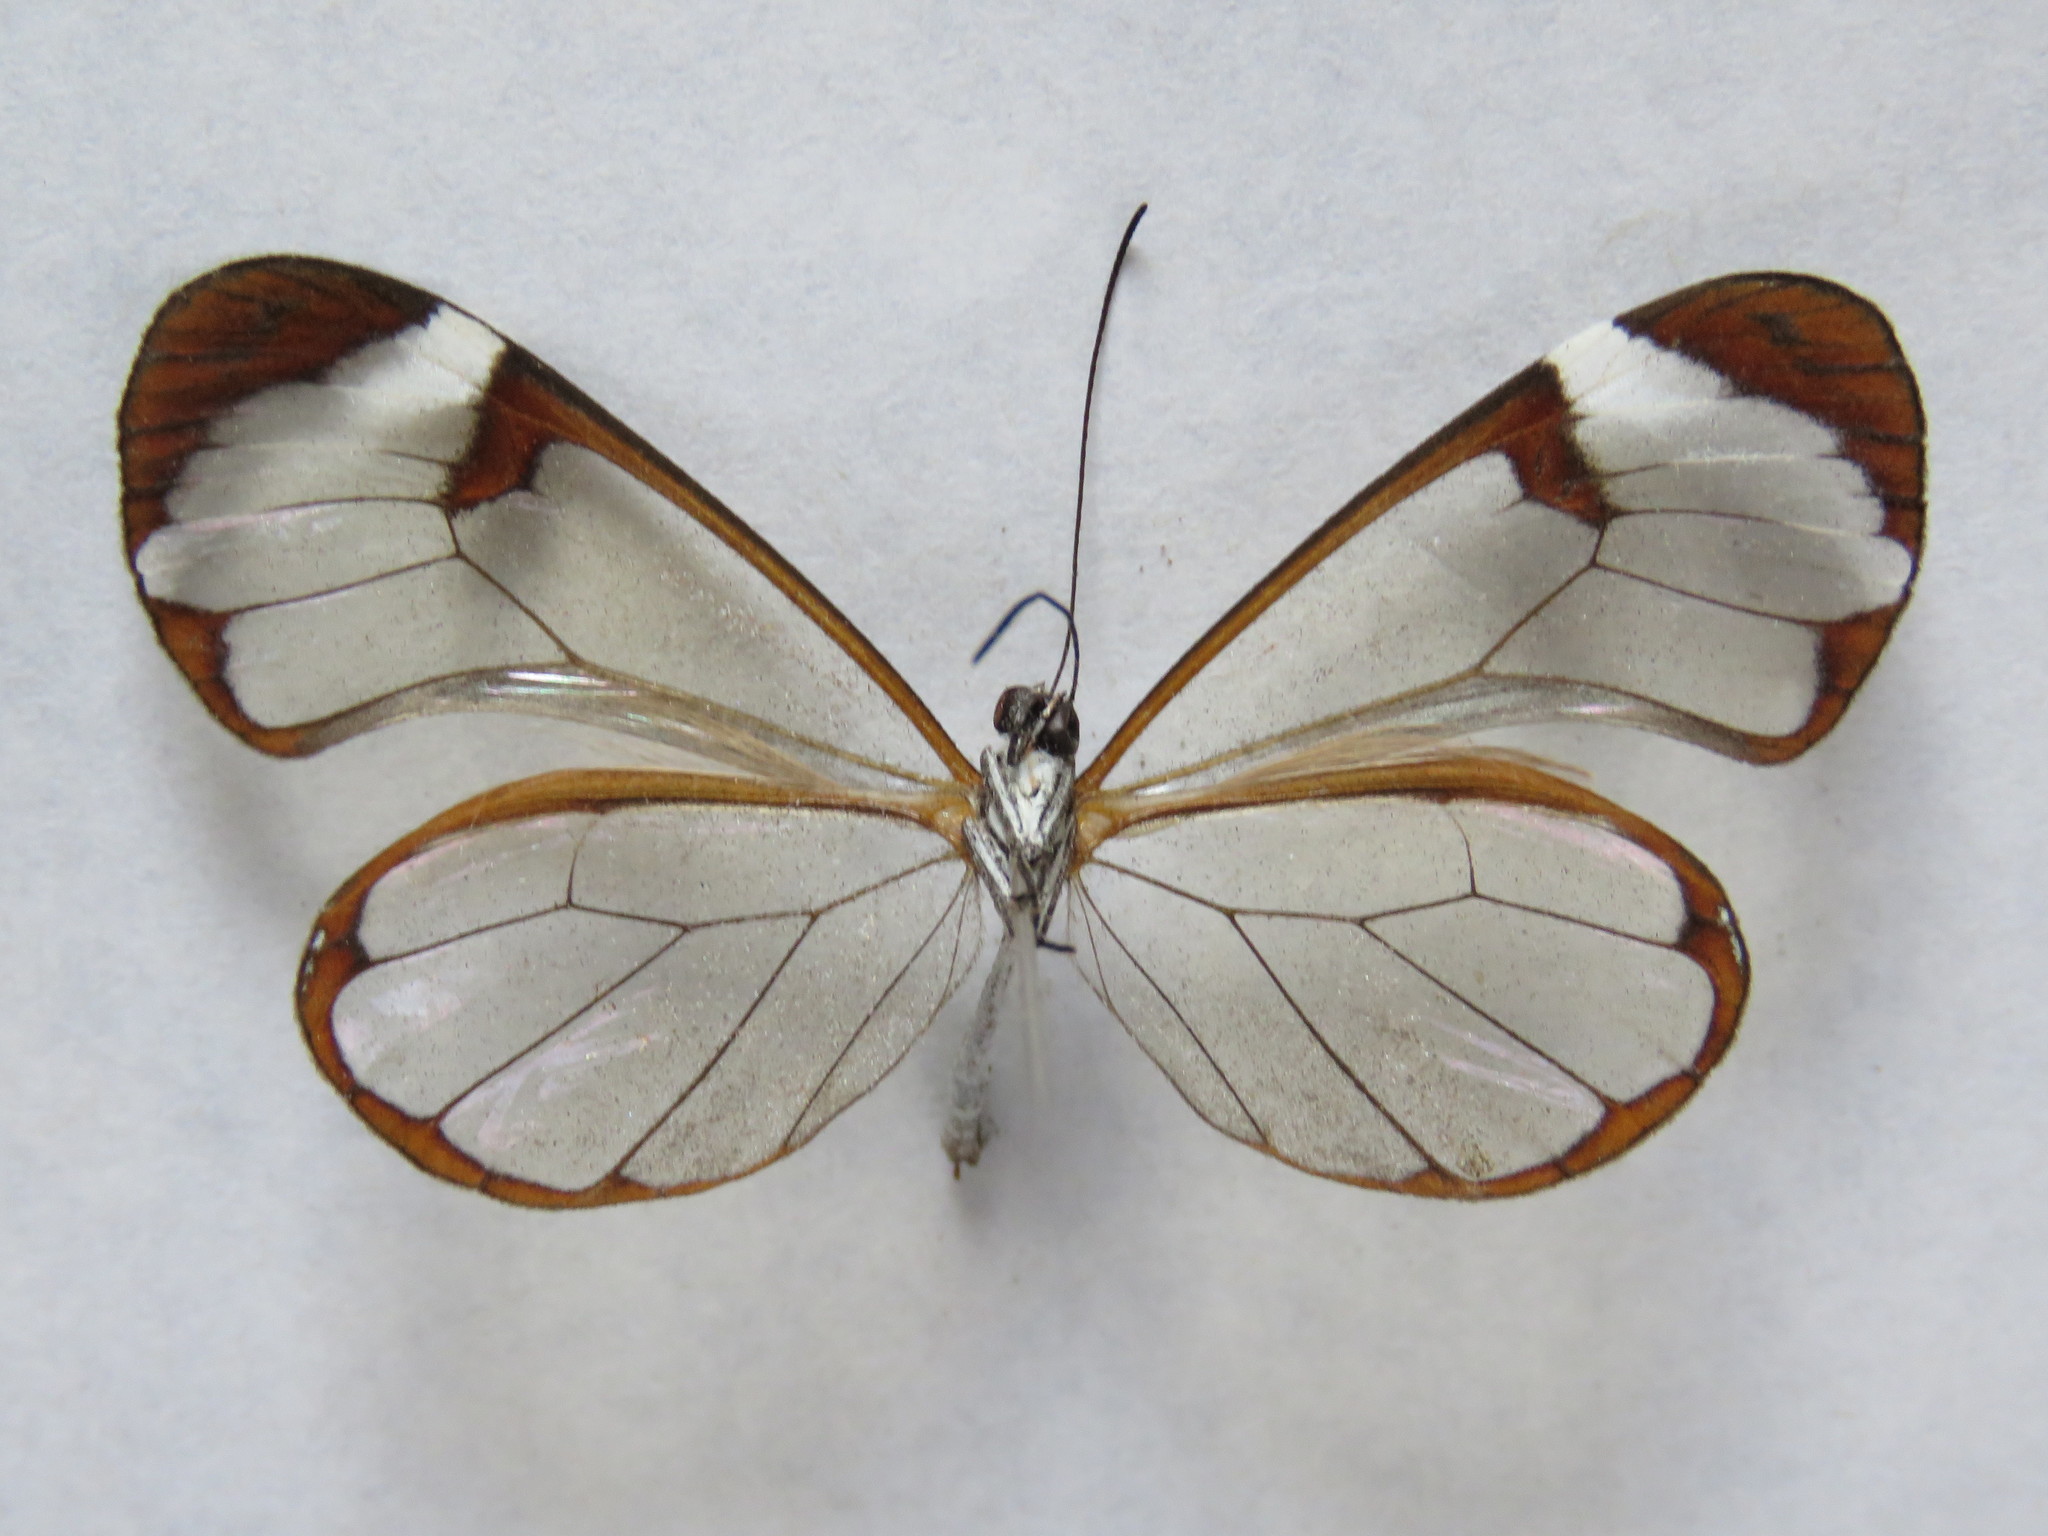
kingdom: Animalia
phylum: Arthropoda
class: Insecta
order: Lepidoptera
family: Nymphalidae
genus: Greta
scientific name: Greta morgane
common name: Thick-tipped greta
